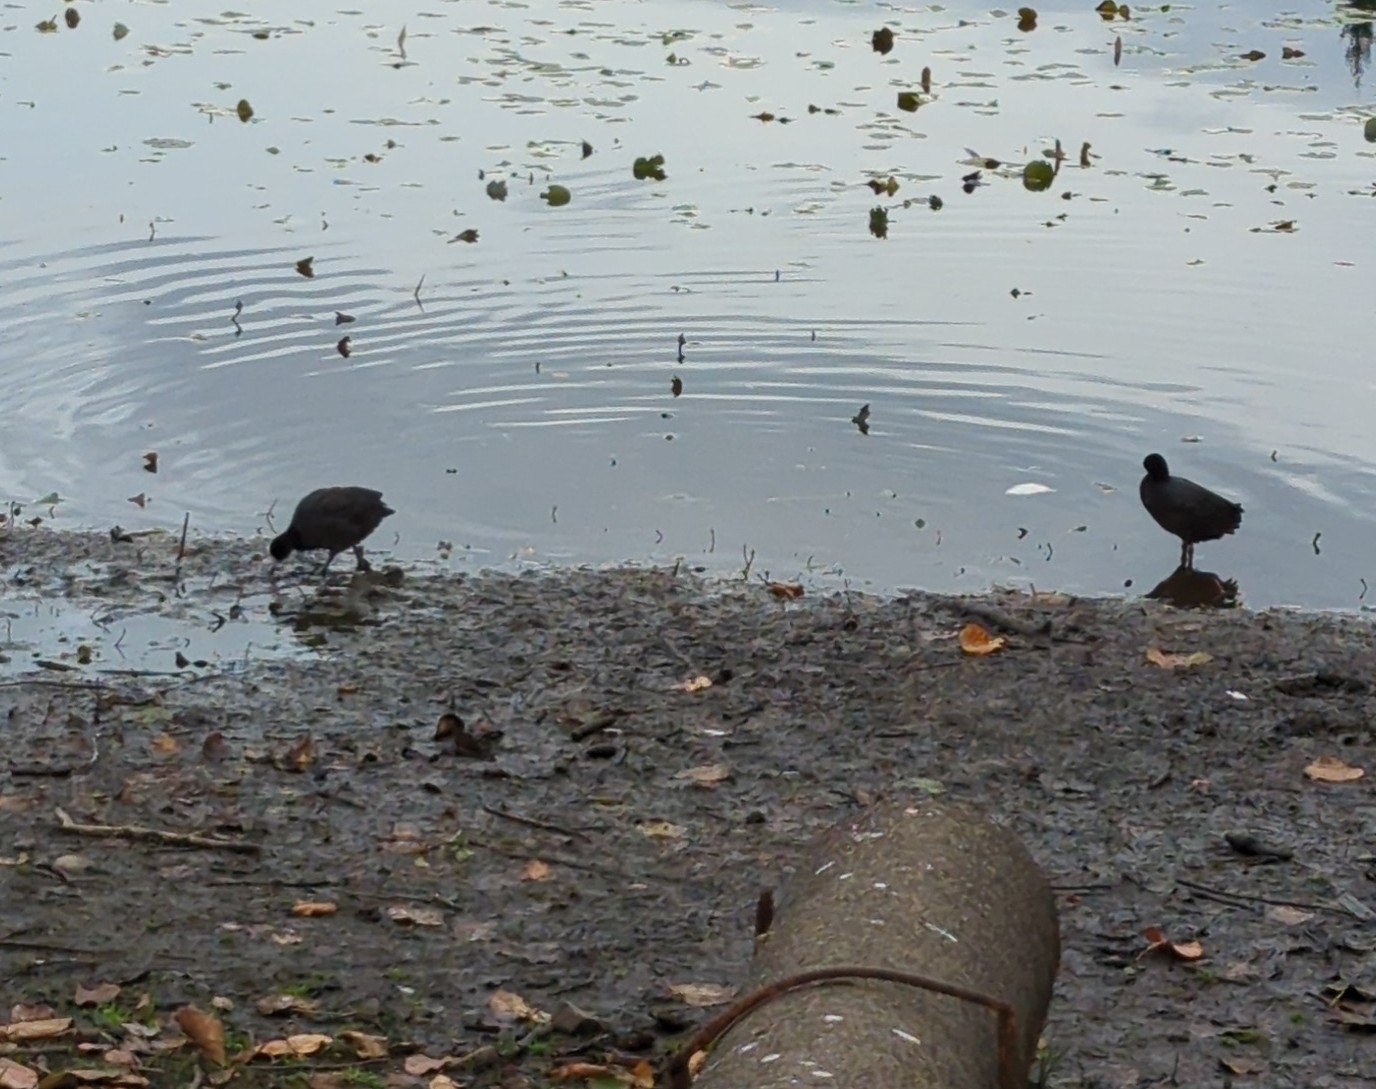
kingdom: Animalia
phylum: Chordata
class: Aves
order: Gruiformes
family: Rallidae
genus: Fulica
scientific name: Fulica americana
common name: American coot
